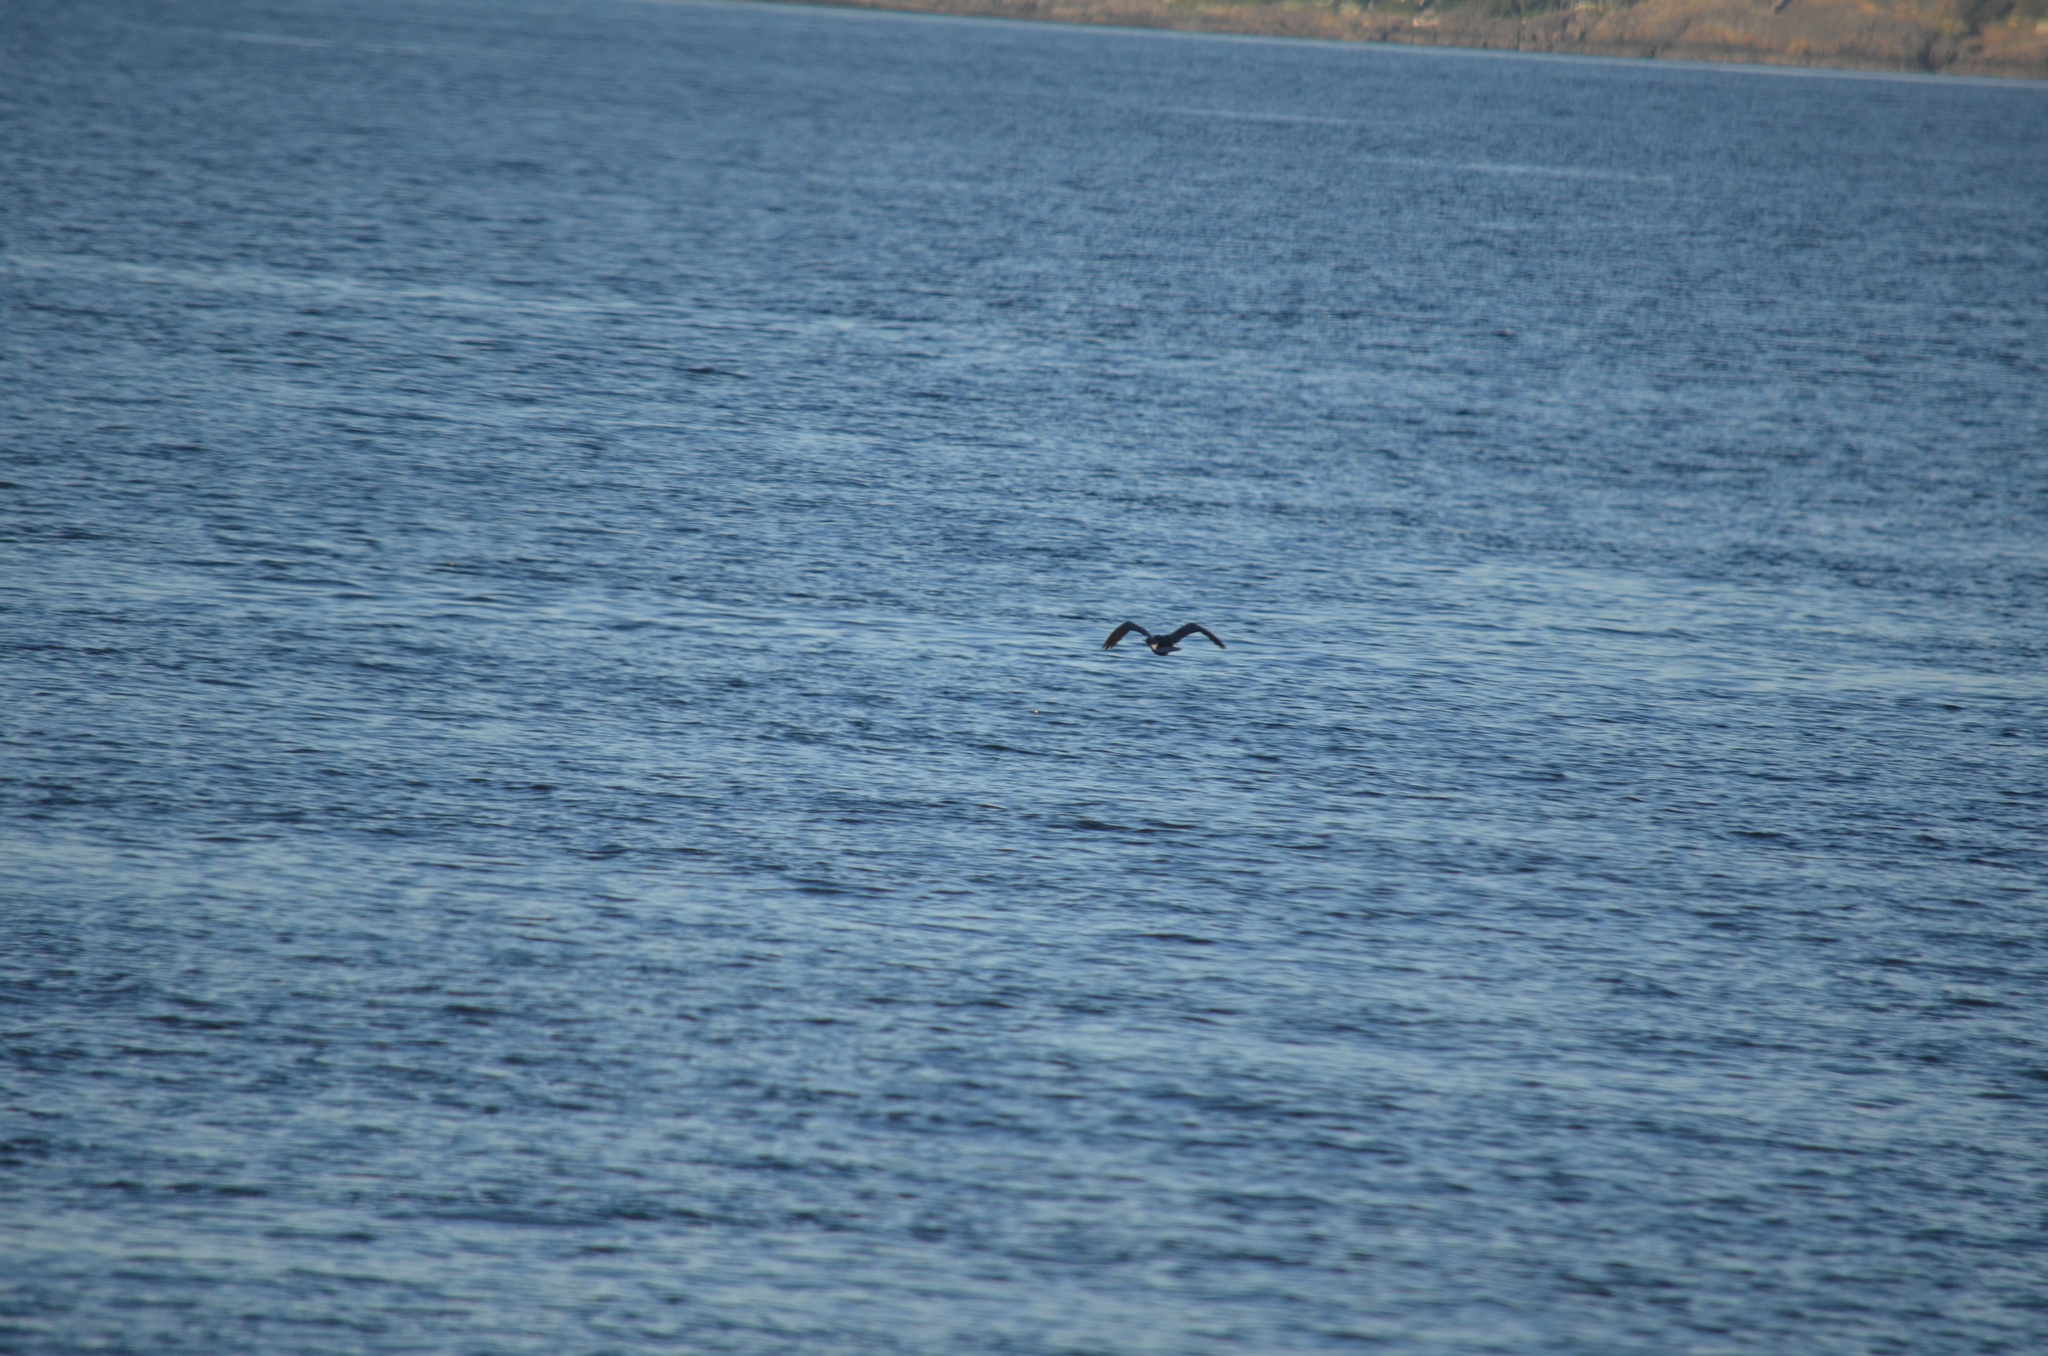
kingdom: Animalia
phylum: Chordata
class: Aves
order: Suliformes
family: Phalacrocoracidae
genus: Phalacrocorax
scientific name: Phalacrocorax pelagicus
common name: Pelagic cormorant
